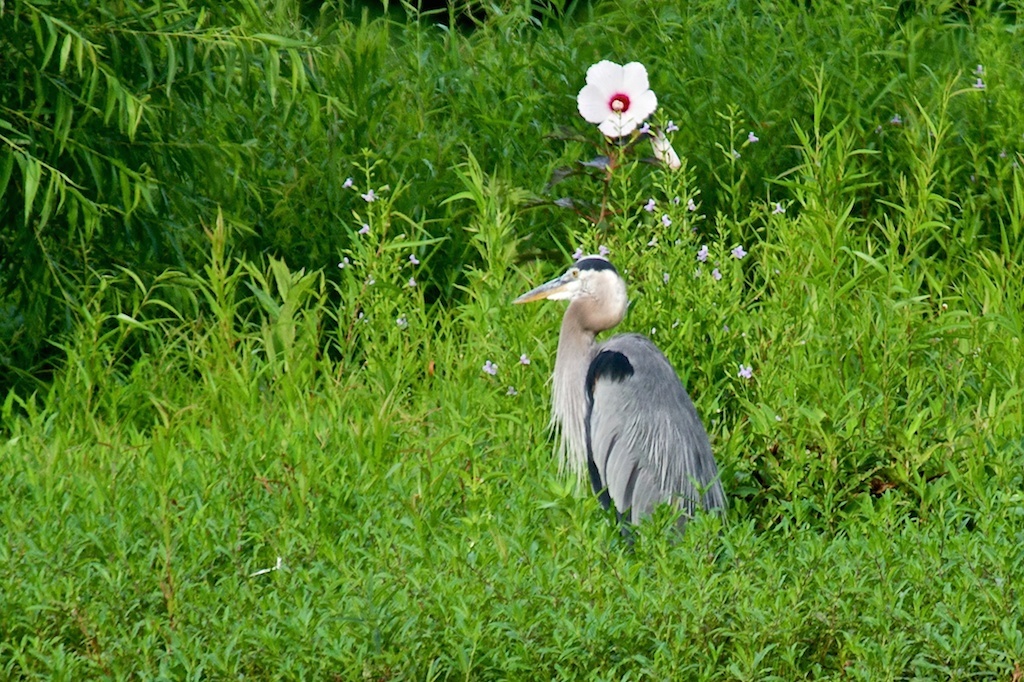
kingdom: Plantae
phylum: Tracheophyta
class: Magnoliopsida
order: Malvales
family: Malvaceae
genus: Hibiscus
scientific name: Hibiscus moscheutos
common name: Common rose-mallow
